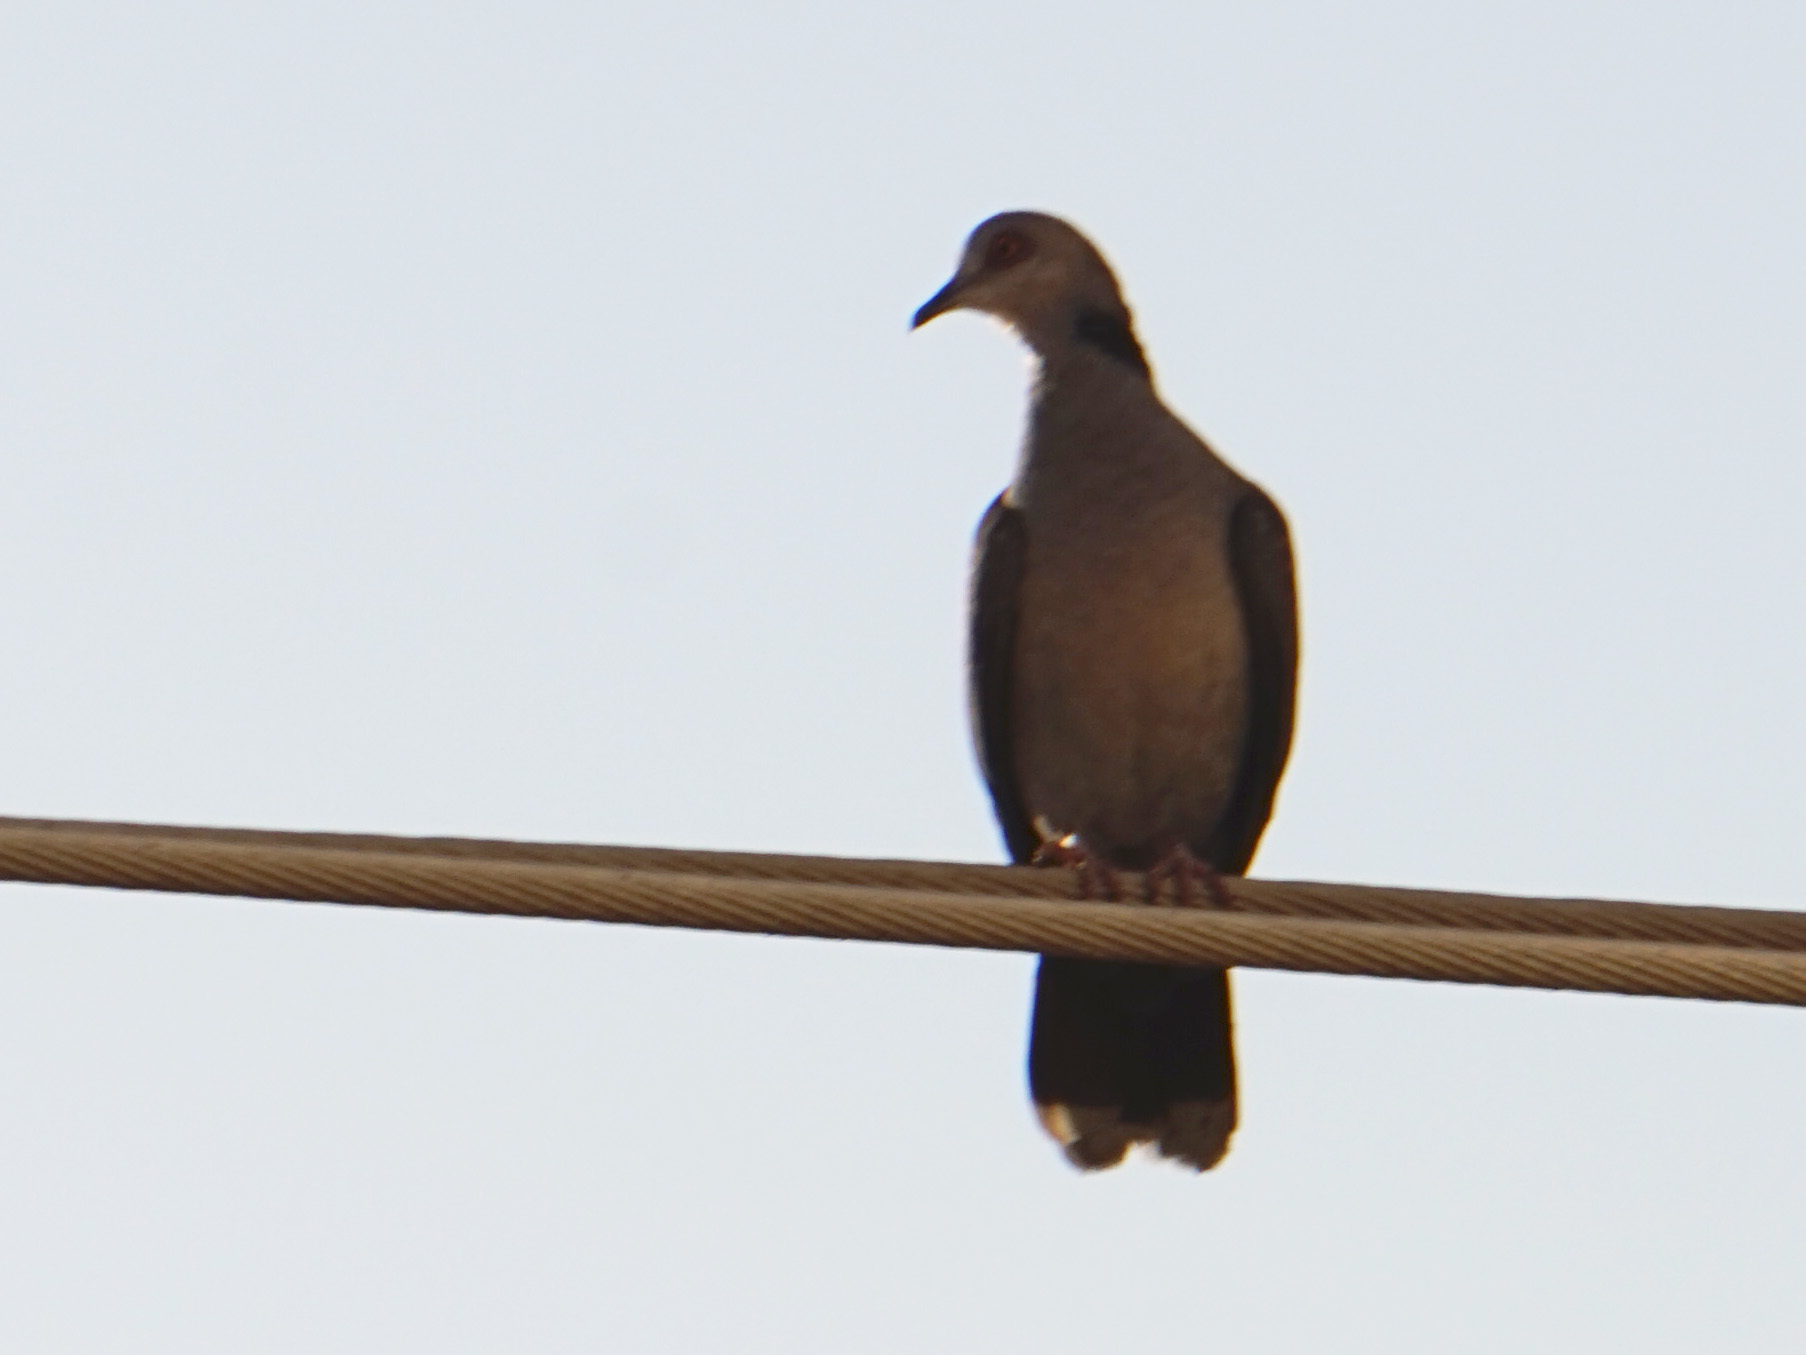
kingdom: Animalia
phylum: Chordata
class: Aves
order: Columbiformes
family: Columbidae
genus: Streptopelia
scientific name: Streptopelia semitorquata
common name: Red-eyed dove
